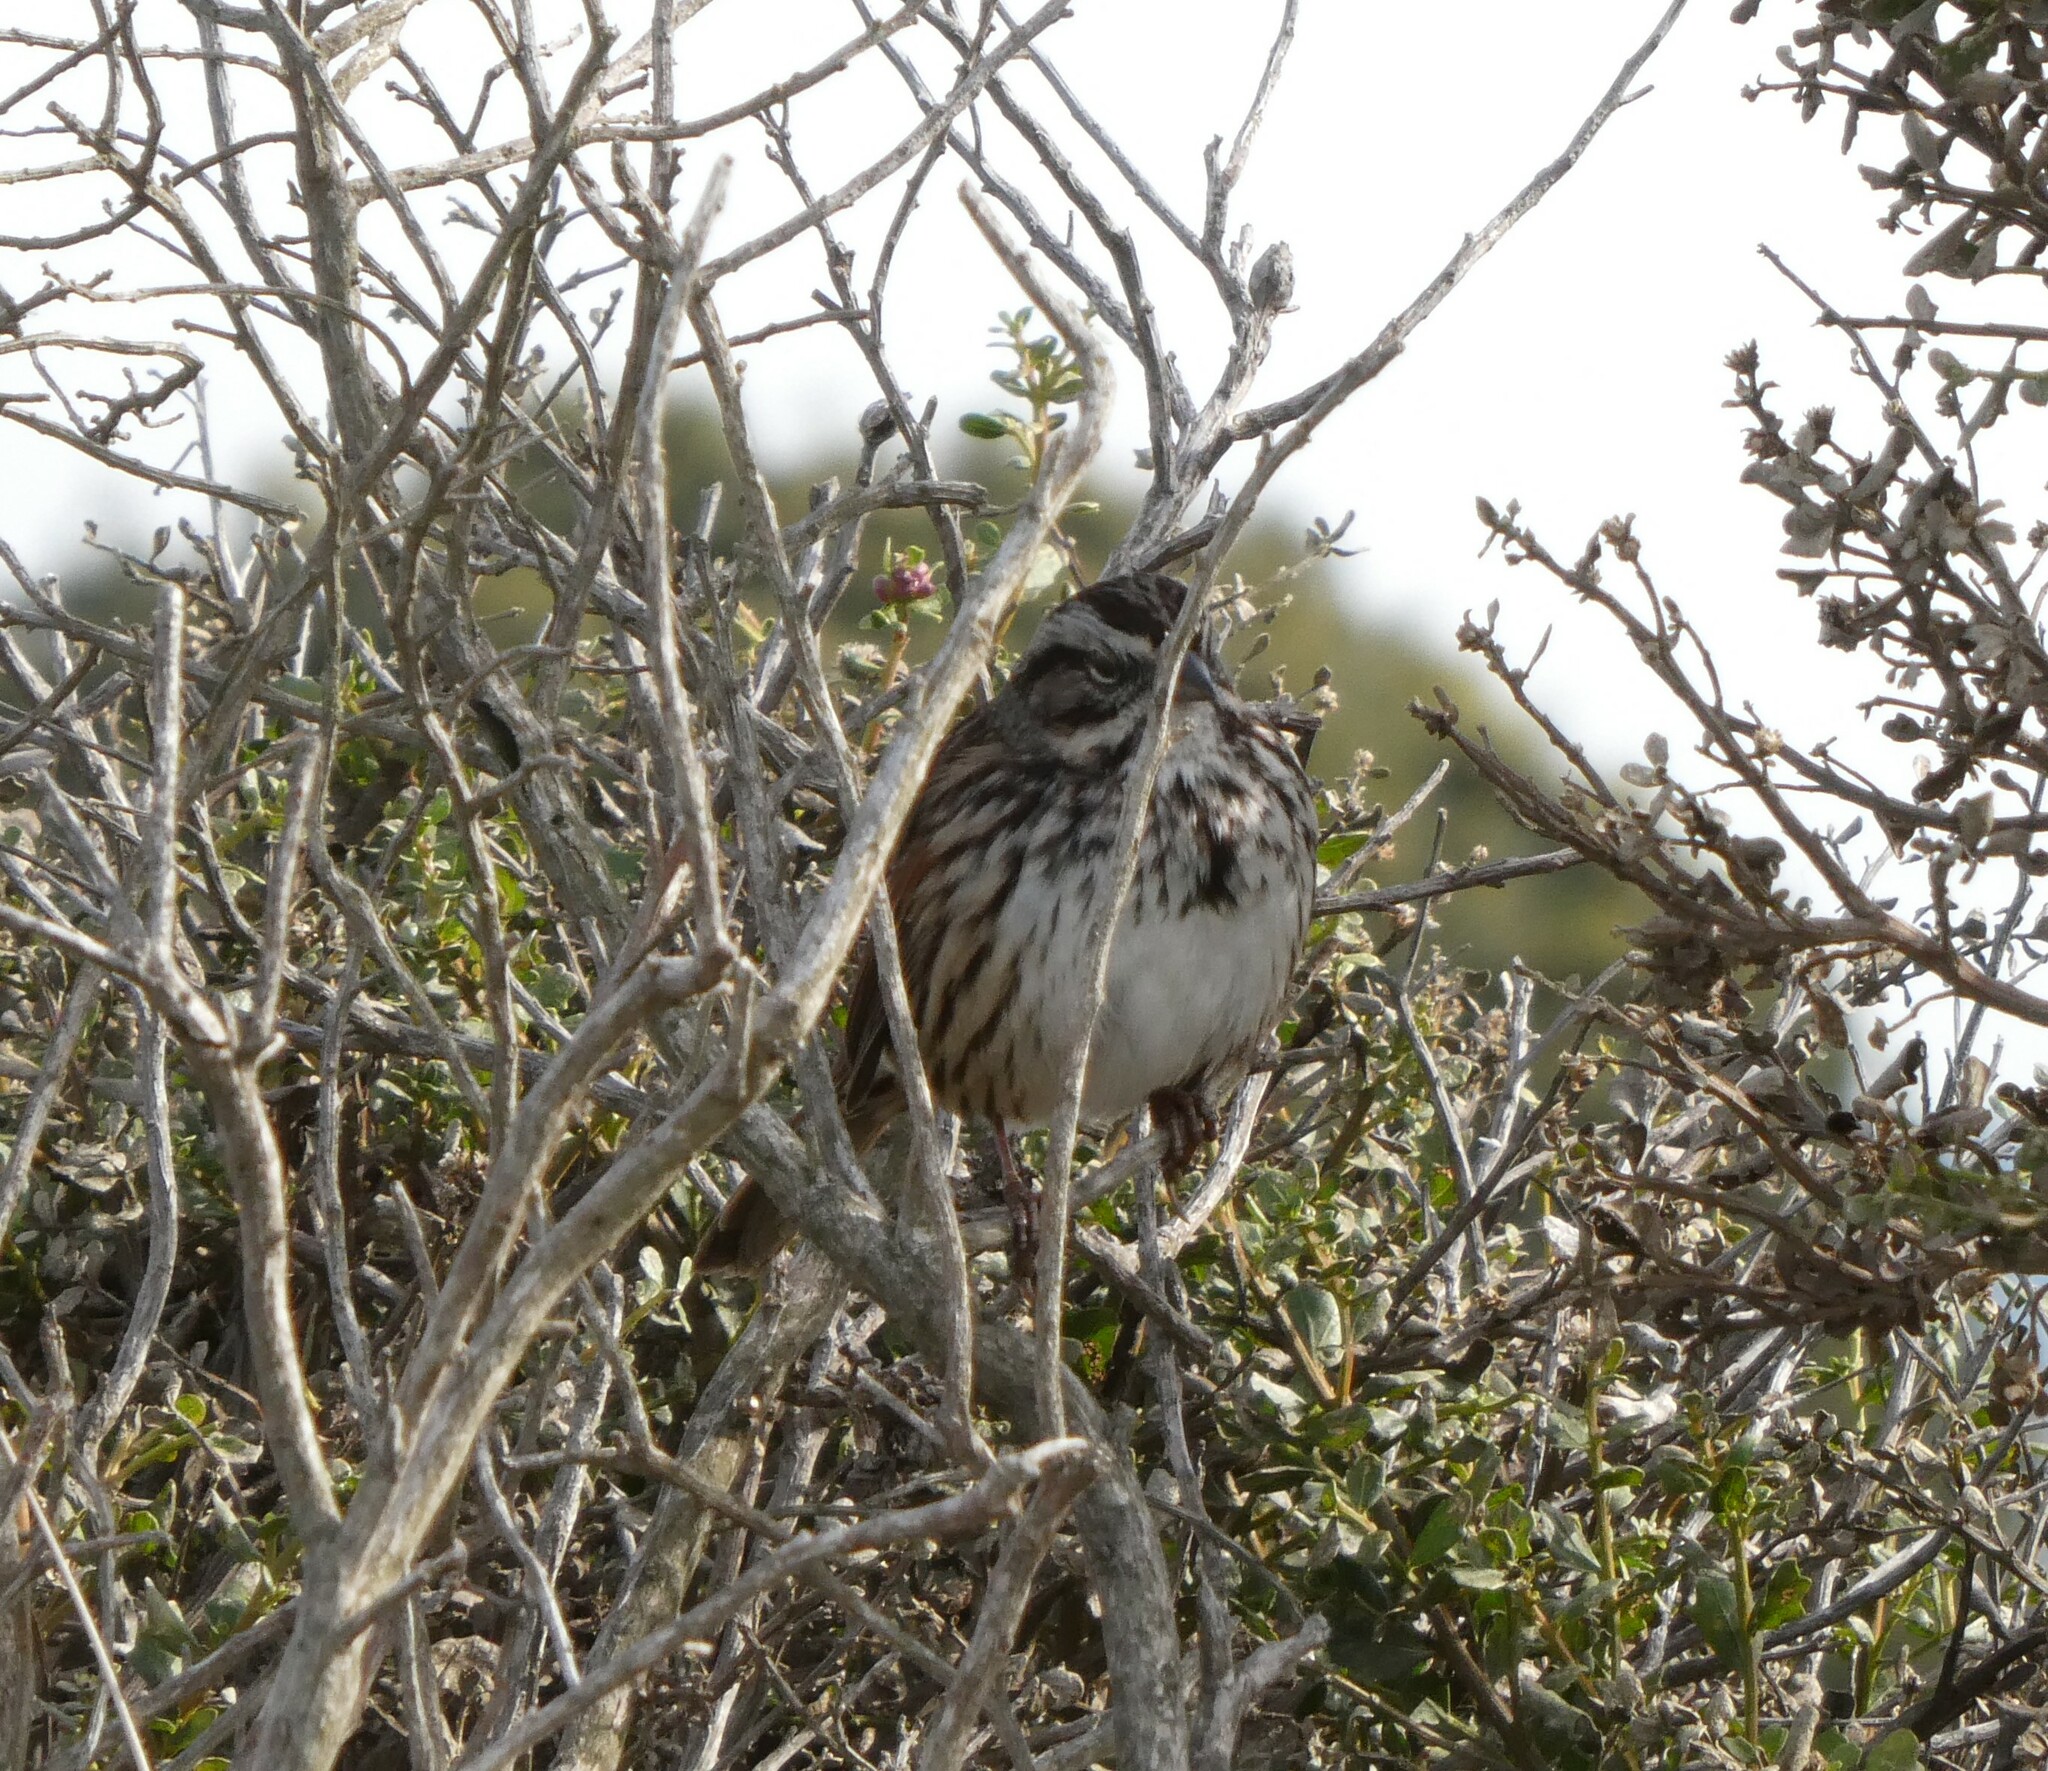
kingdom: Animalia
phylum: Chordata
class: Aves
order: Passeriformes
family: Passerellidae
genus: Melospiza
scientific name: Melospiza melodia
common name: Song sparrow
